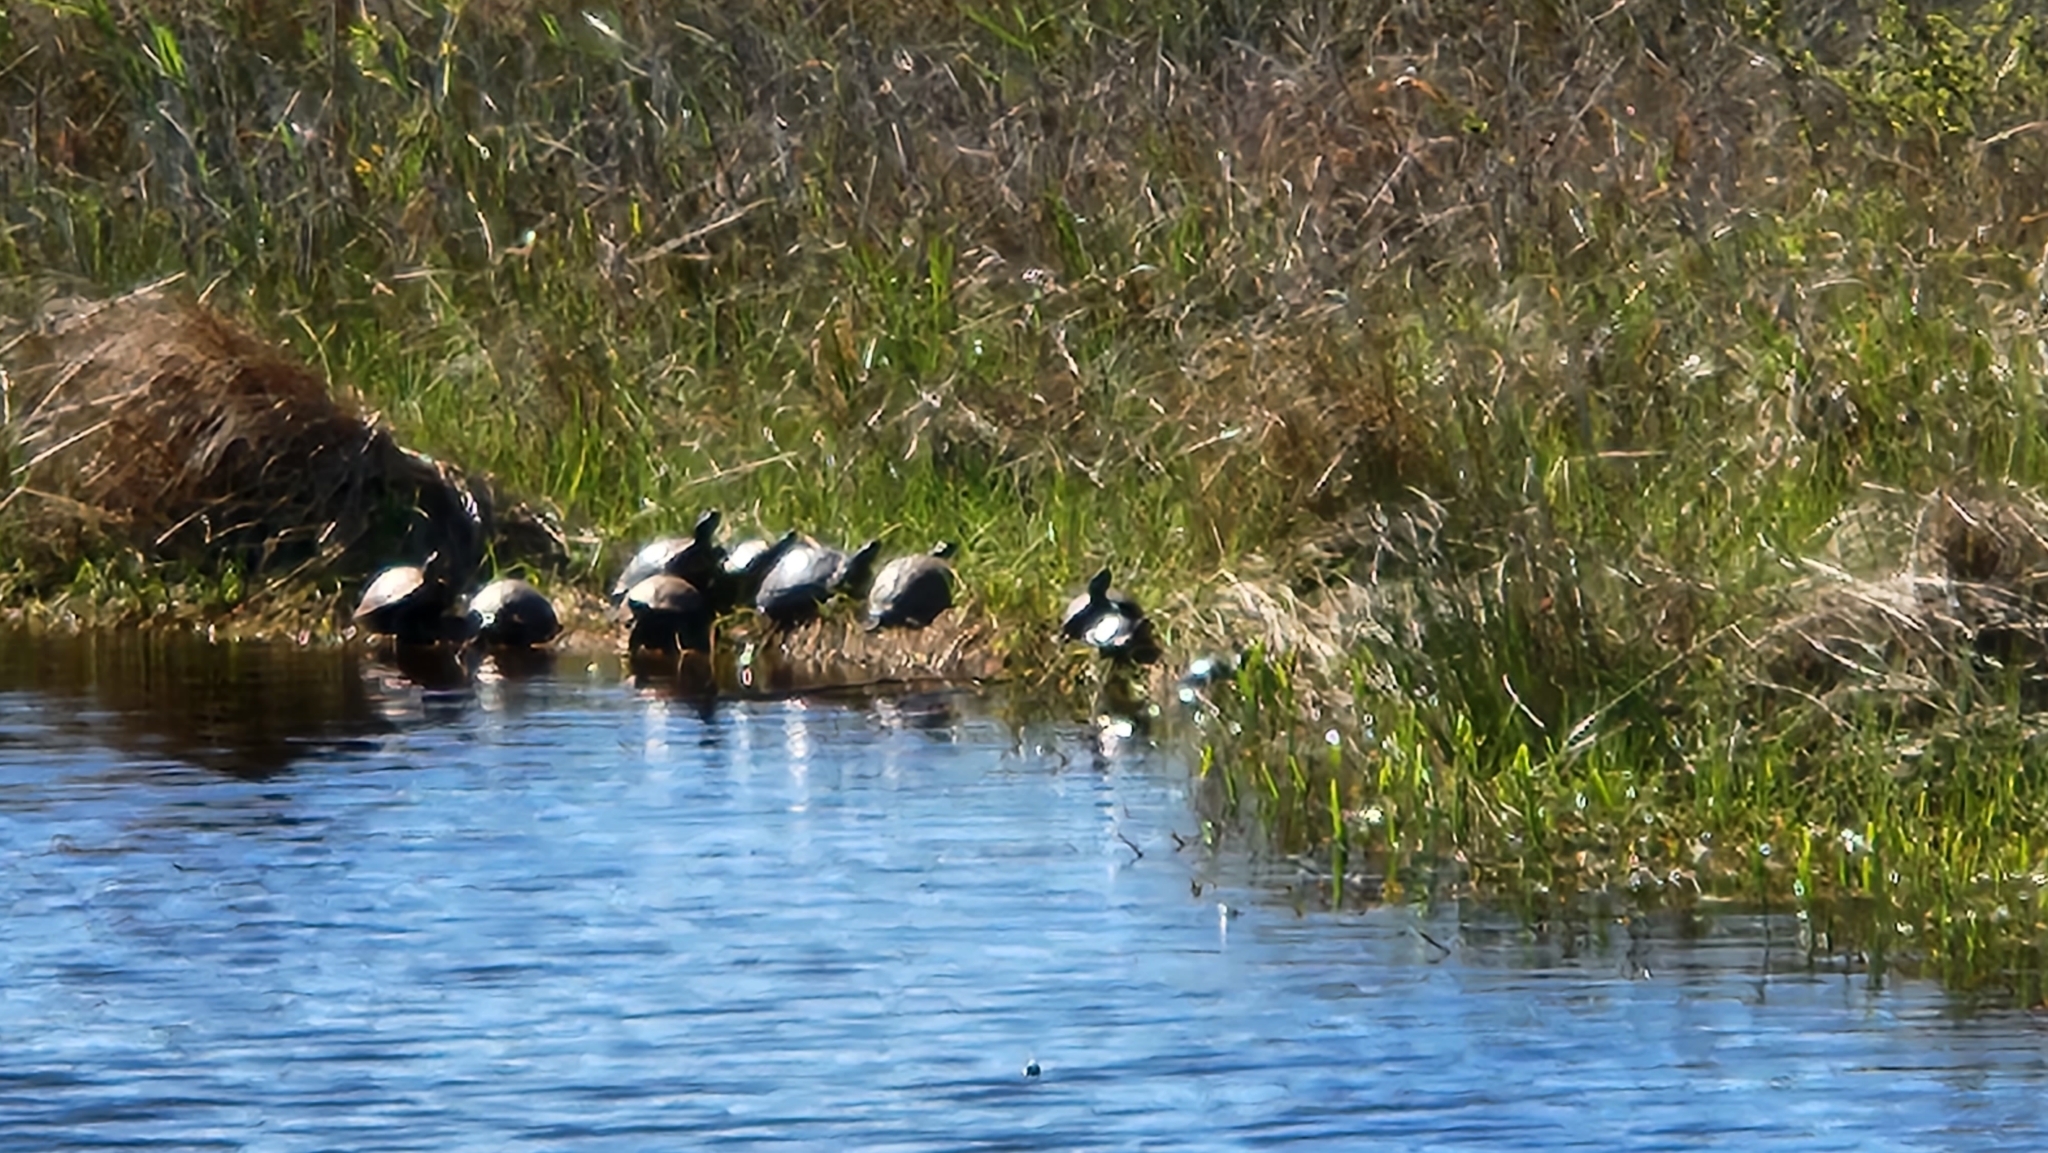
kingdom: Animalia
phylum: Chordata
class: Testudines
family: Emydidae
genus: Trachemys
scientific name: Trachemys scripta
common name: Slider
